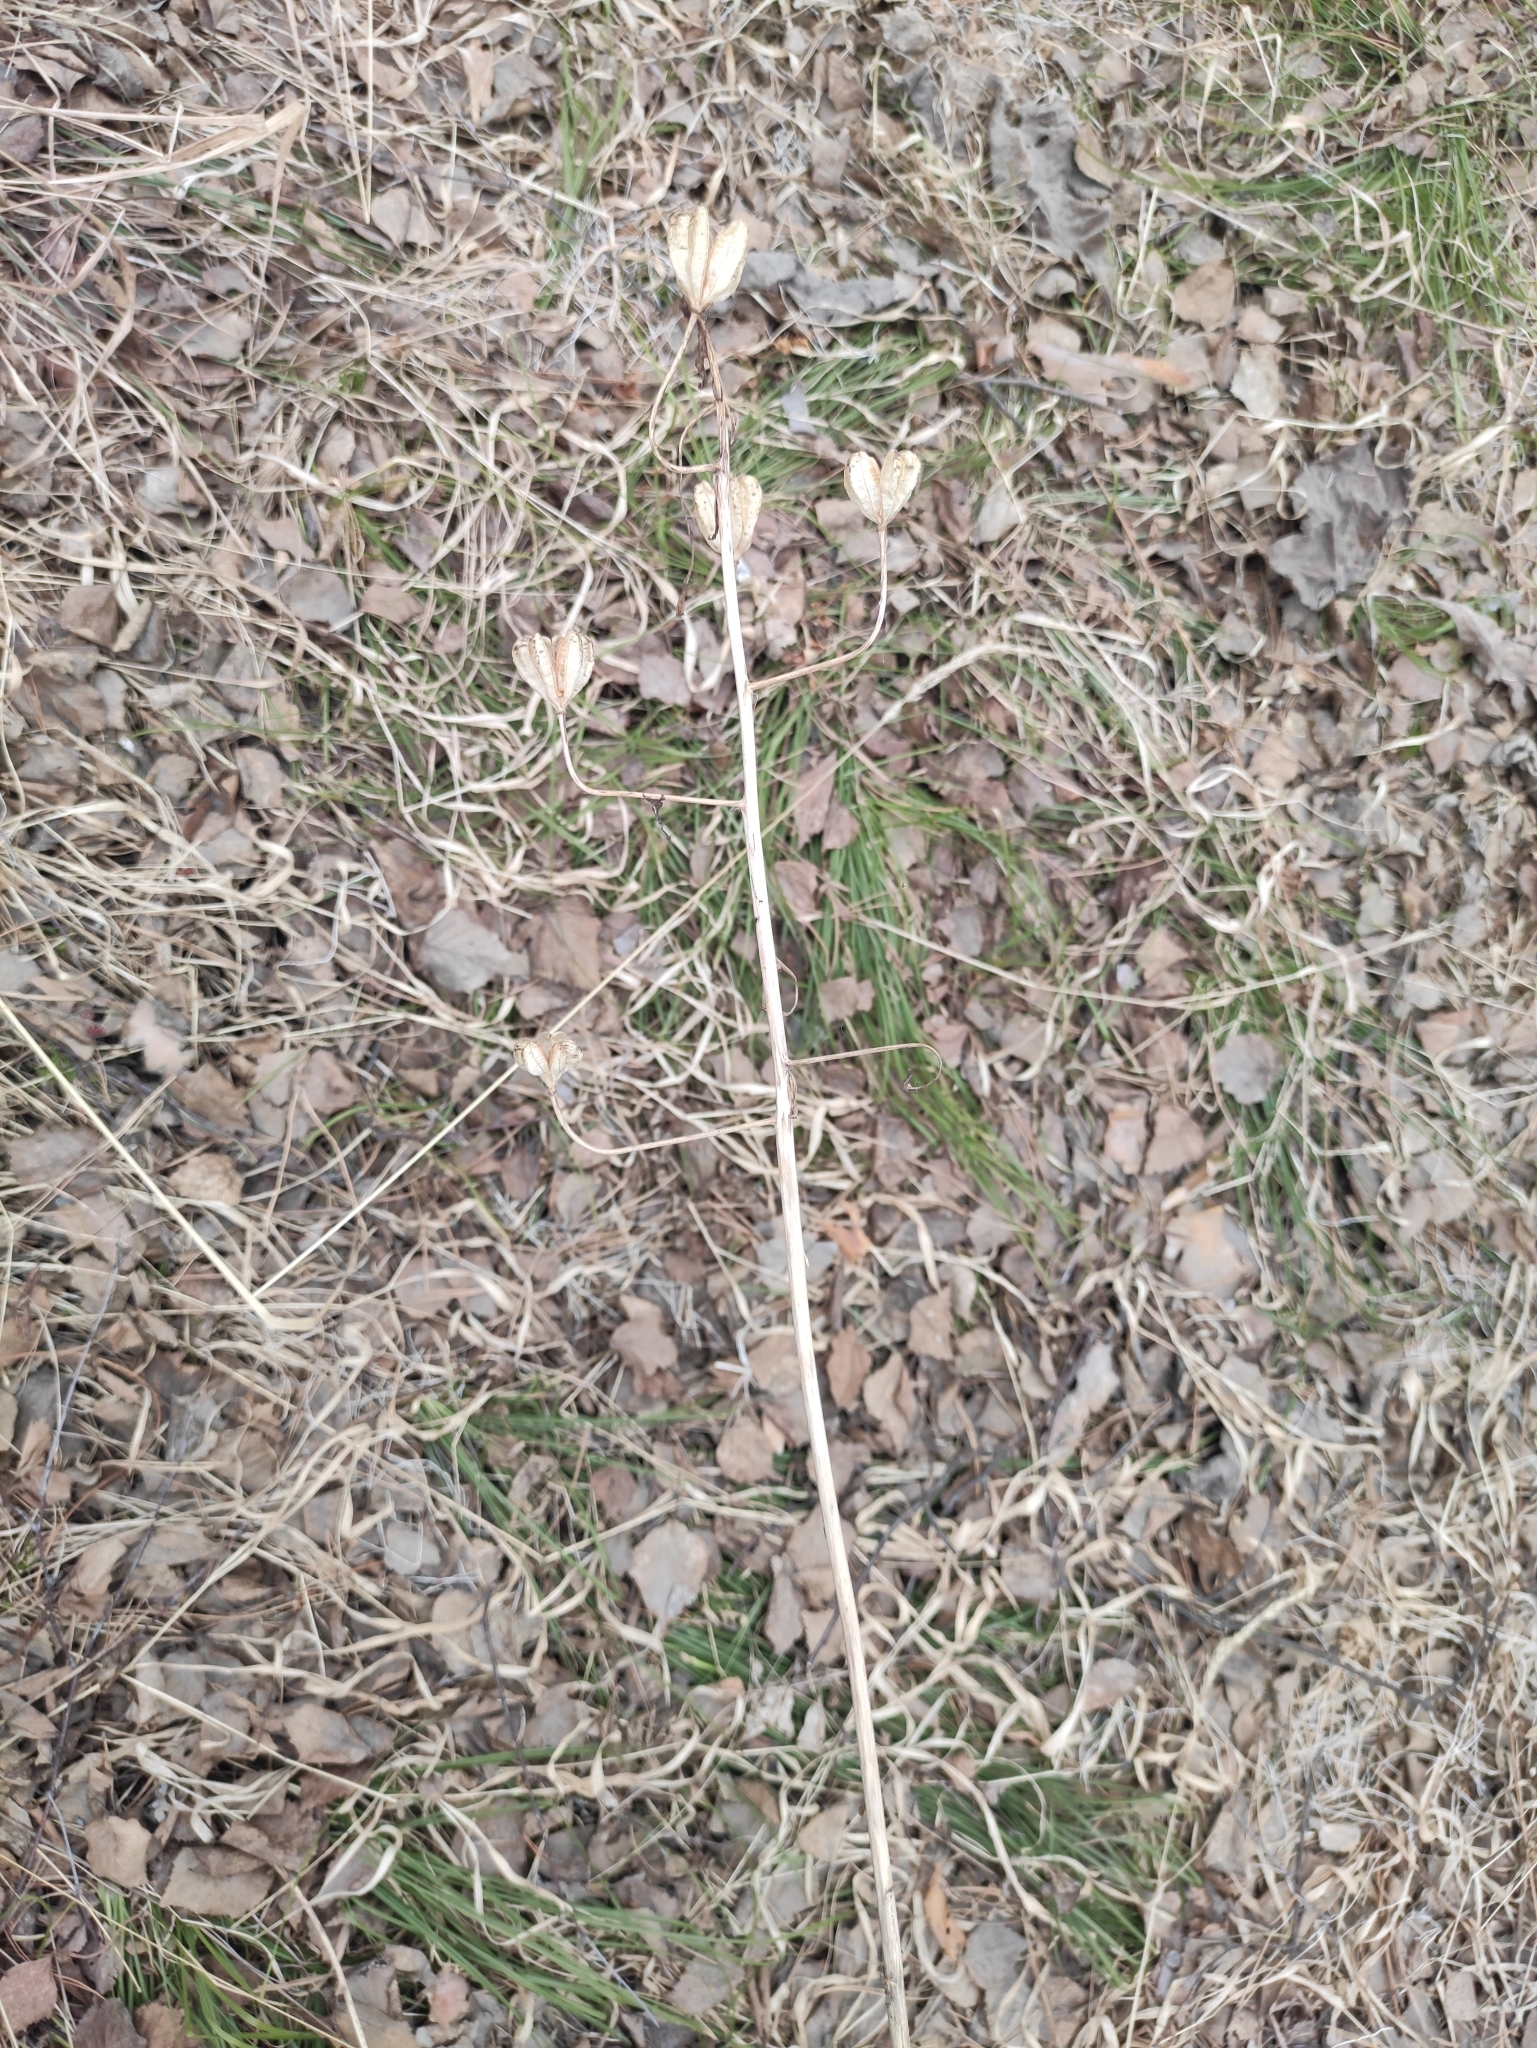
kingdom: Plantae
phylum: Tracheophyta
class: Liliopsida
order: Liliales
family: Liliaceae
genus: Lilium
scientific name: Lilium martagon
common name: Martagon lily
